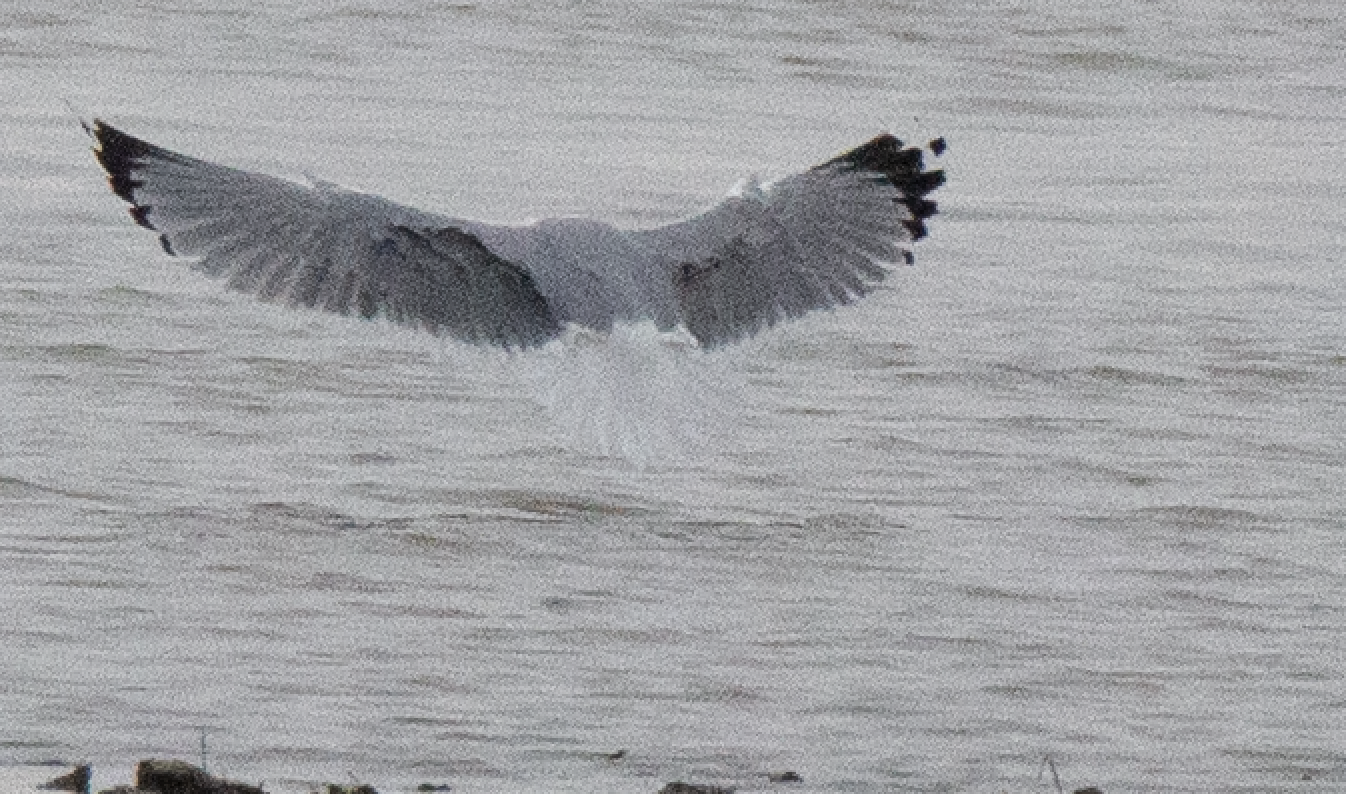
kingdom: Animalia
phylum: Chordata
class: Aves
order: Charadriiformes
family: Laridae
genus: Larus
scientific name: Larus michahellis
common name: Yellow-legged gull
